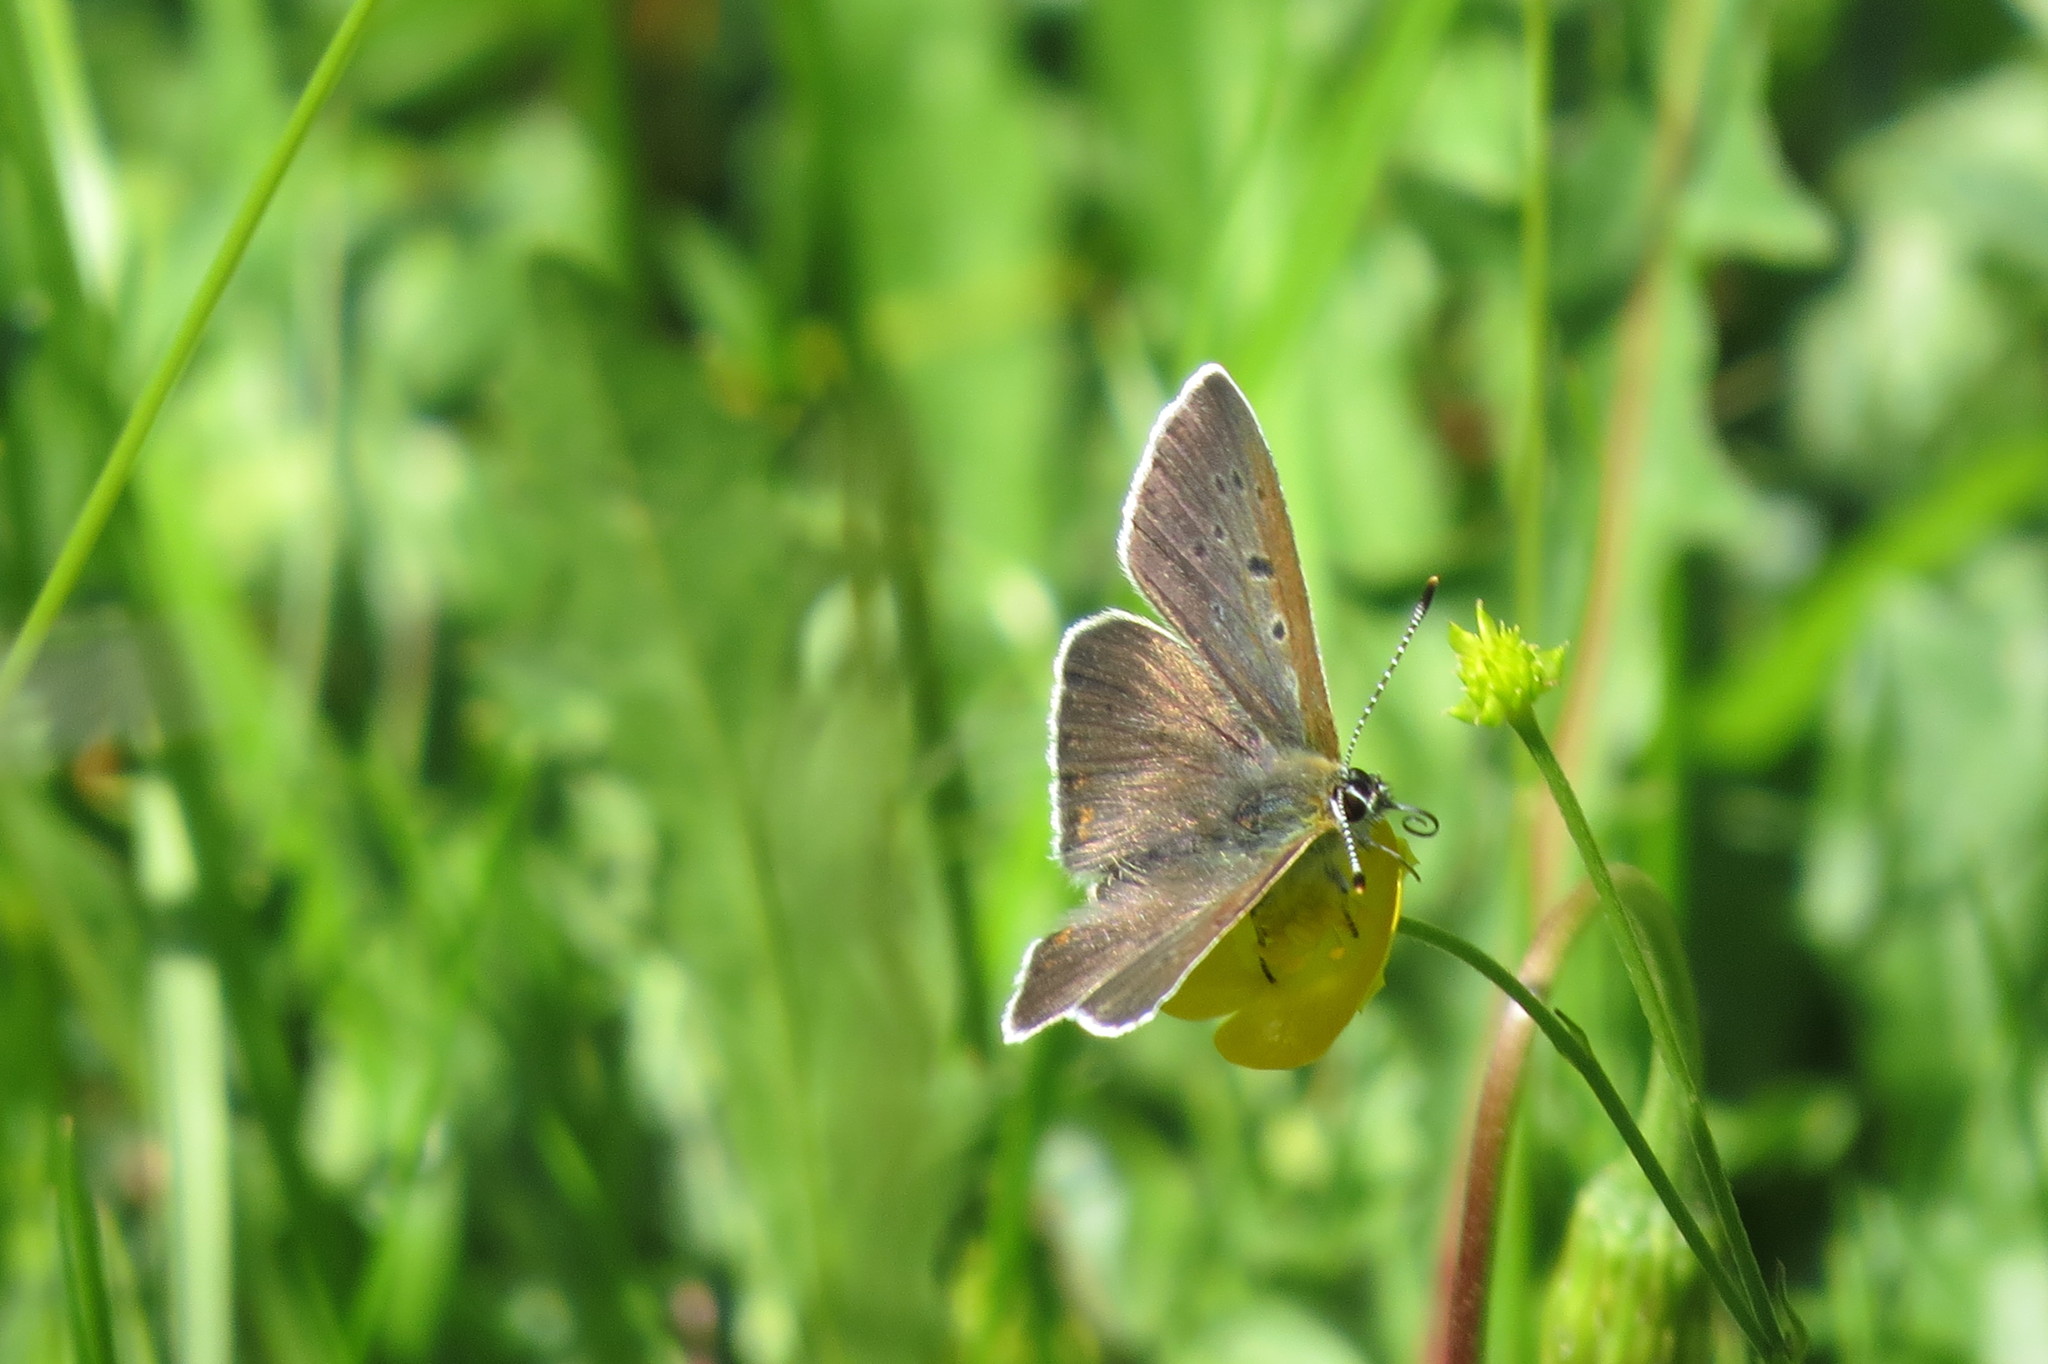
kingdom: Animalia
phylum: Arthropoda
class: Insecta
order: Lepidoptera
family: Lycaenidae
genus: Loweia
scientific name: Loweia tityrus
